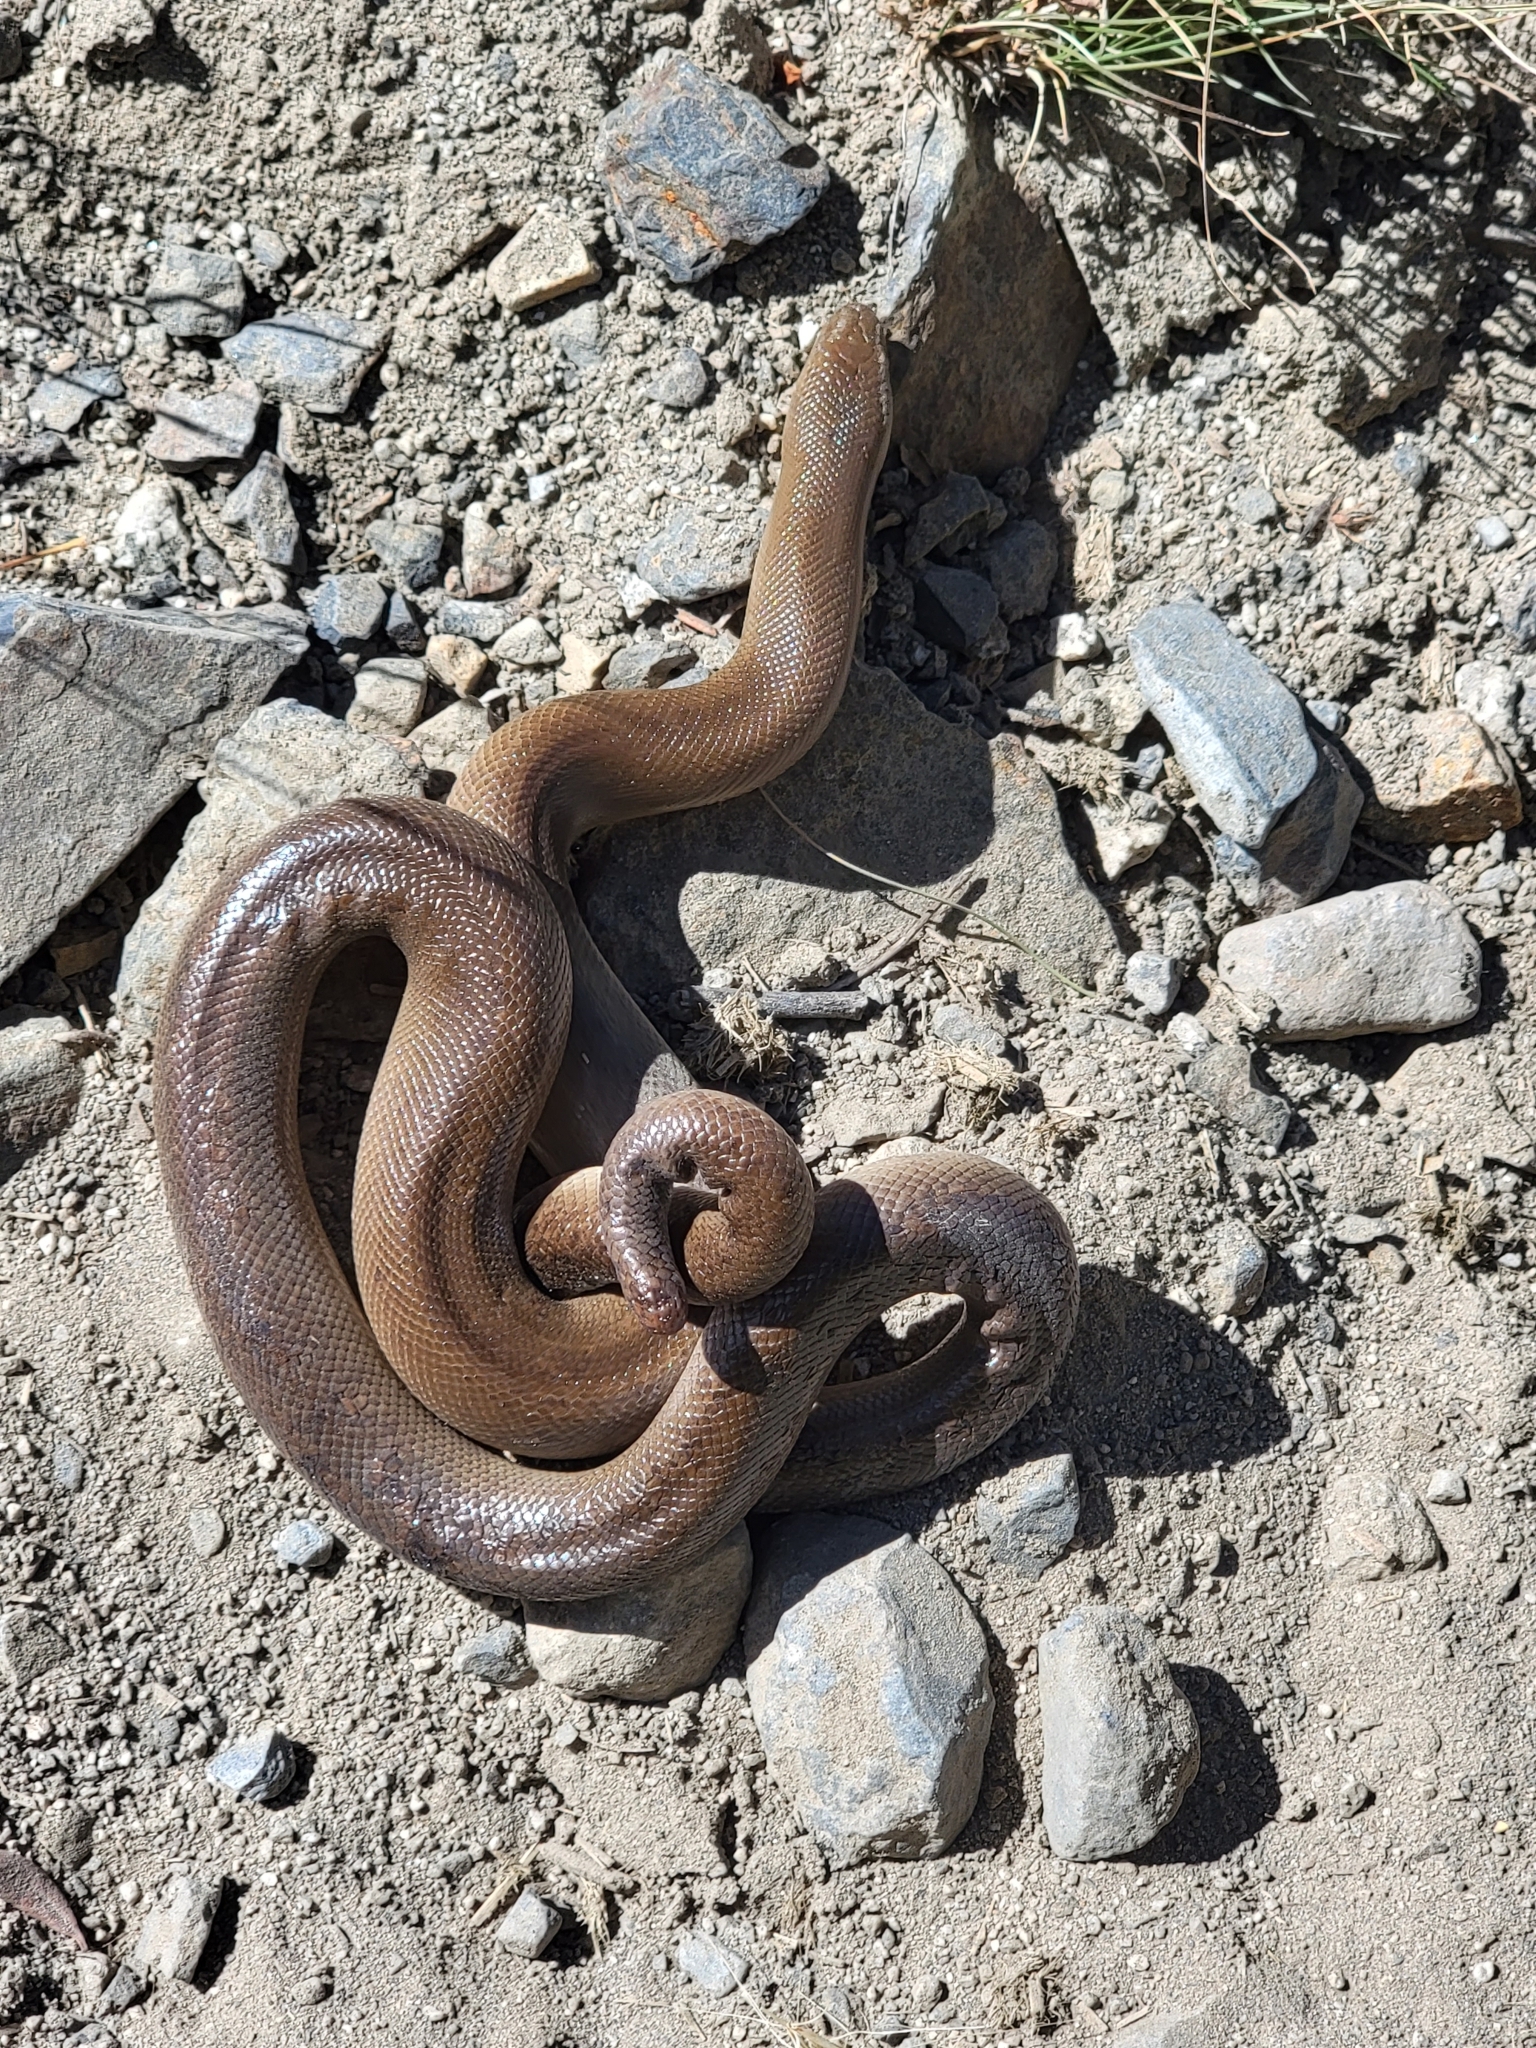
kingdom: Animalia
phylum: Chordata
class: Squamata
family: Boidae
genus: Charina
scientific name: Charina bottae
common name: Northern rubber boa
